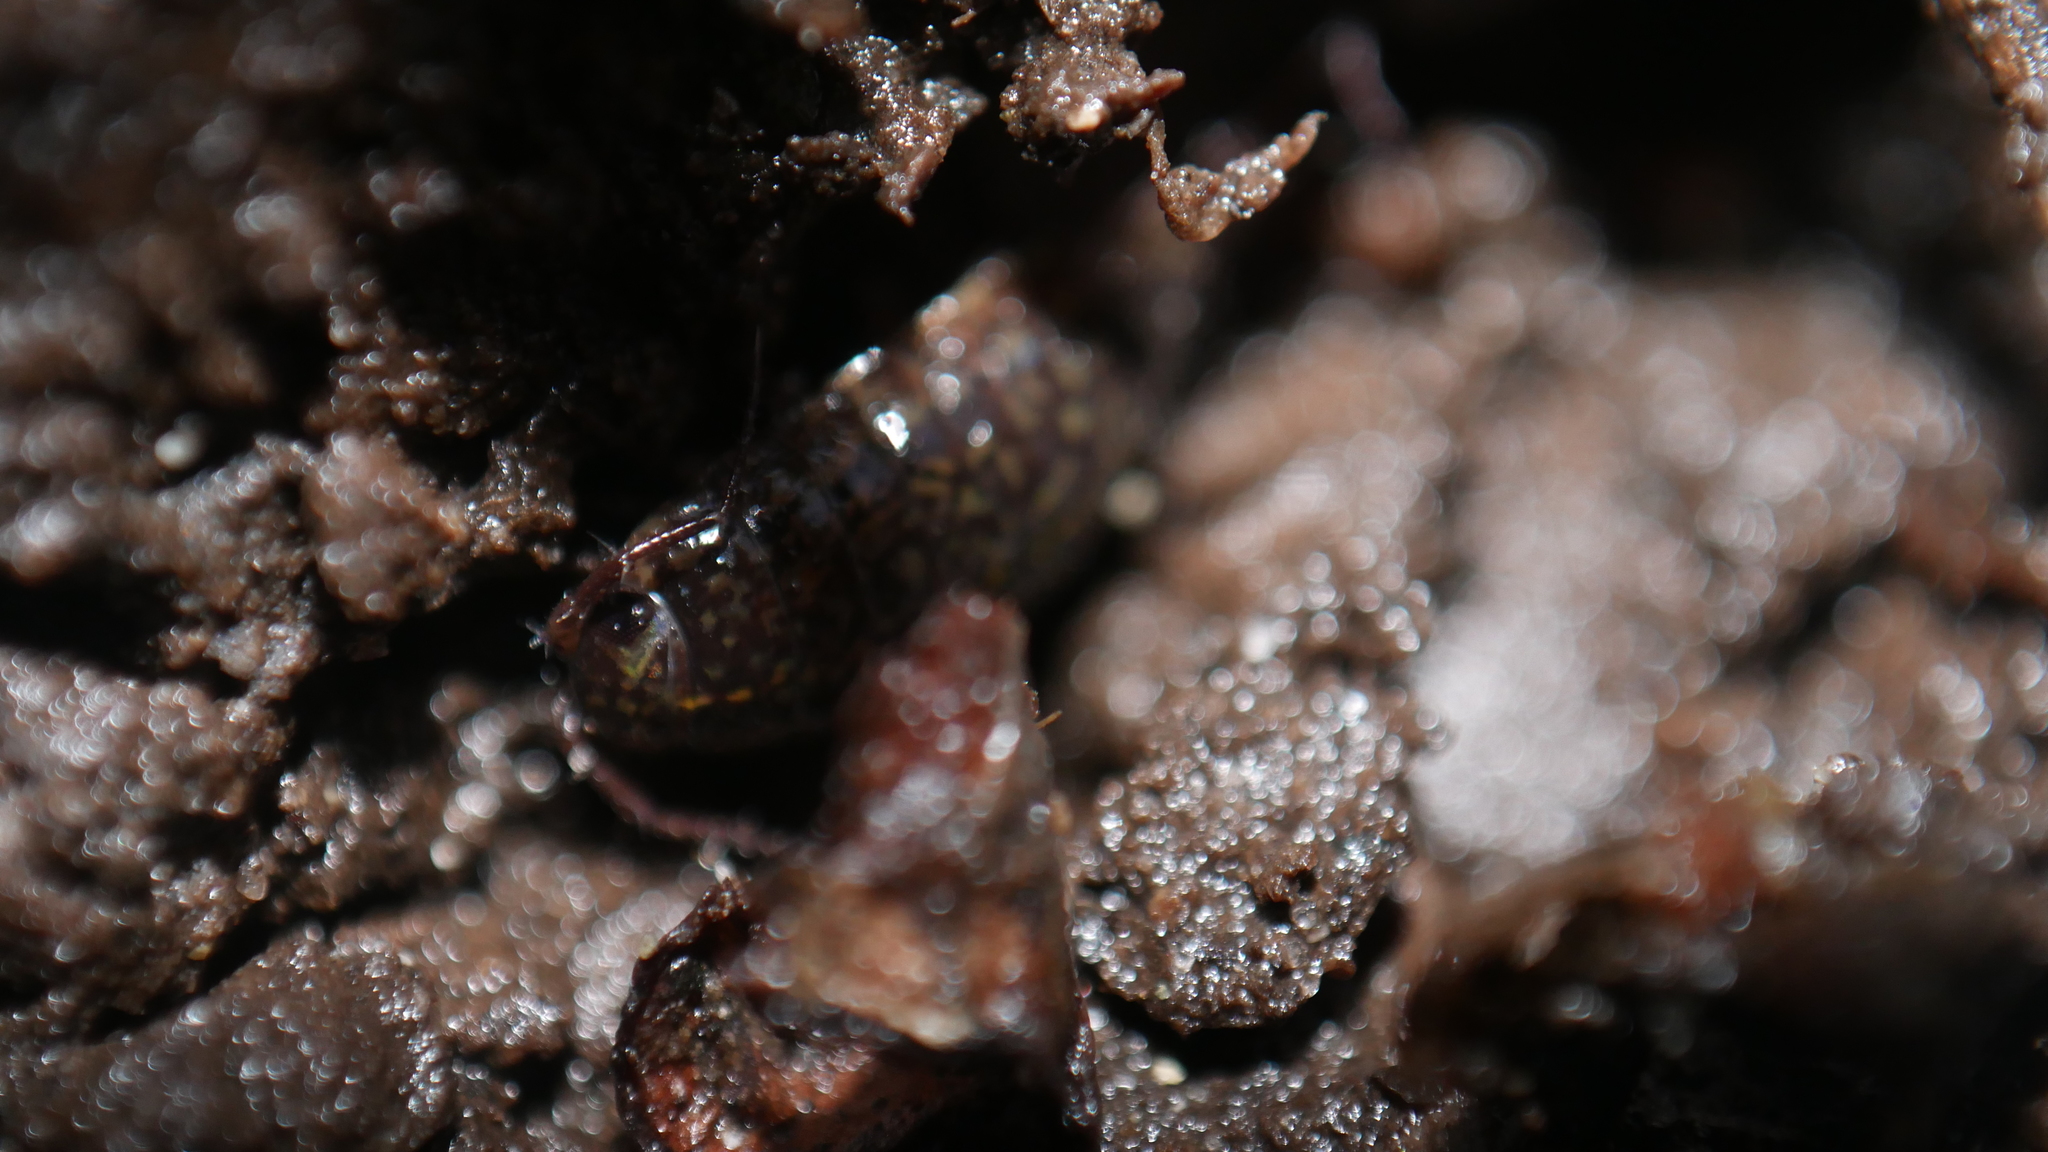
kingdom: Animalia
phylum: Arthropoda
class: Malacostraca
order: Isopoda
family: Ligiidae
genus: Ligidium
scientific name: Ligidium elrodii
